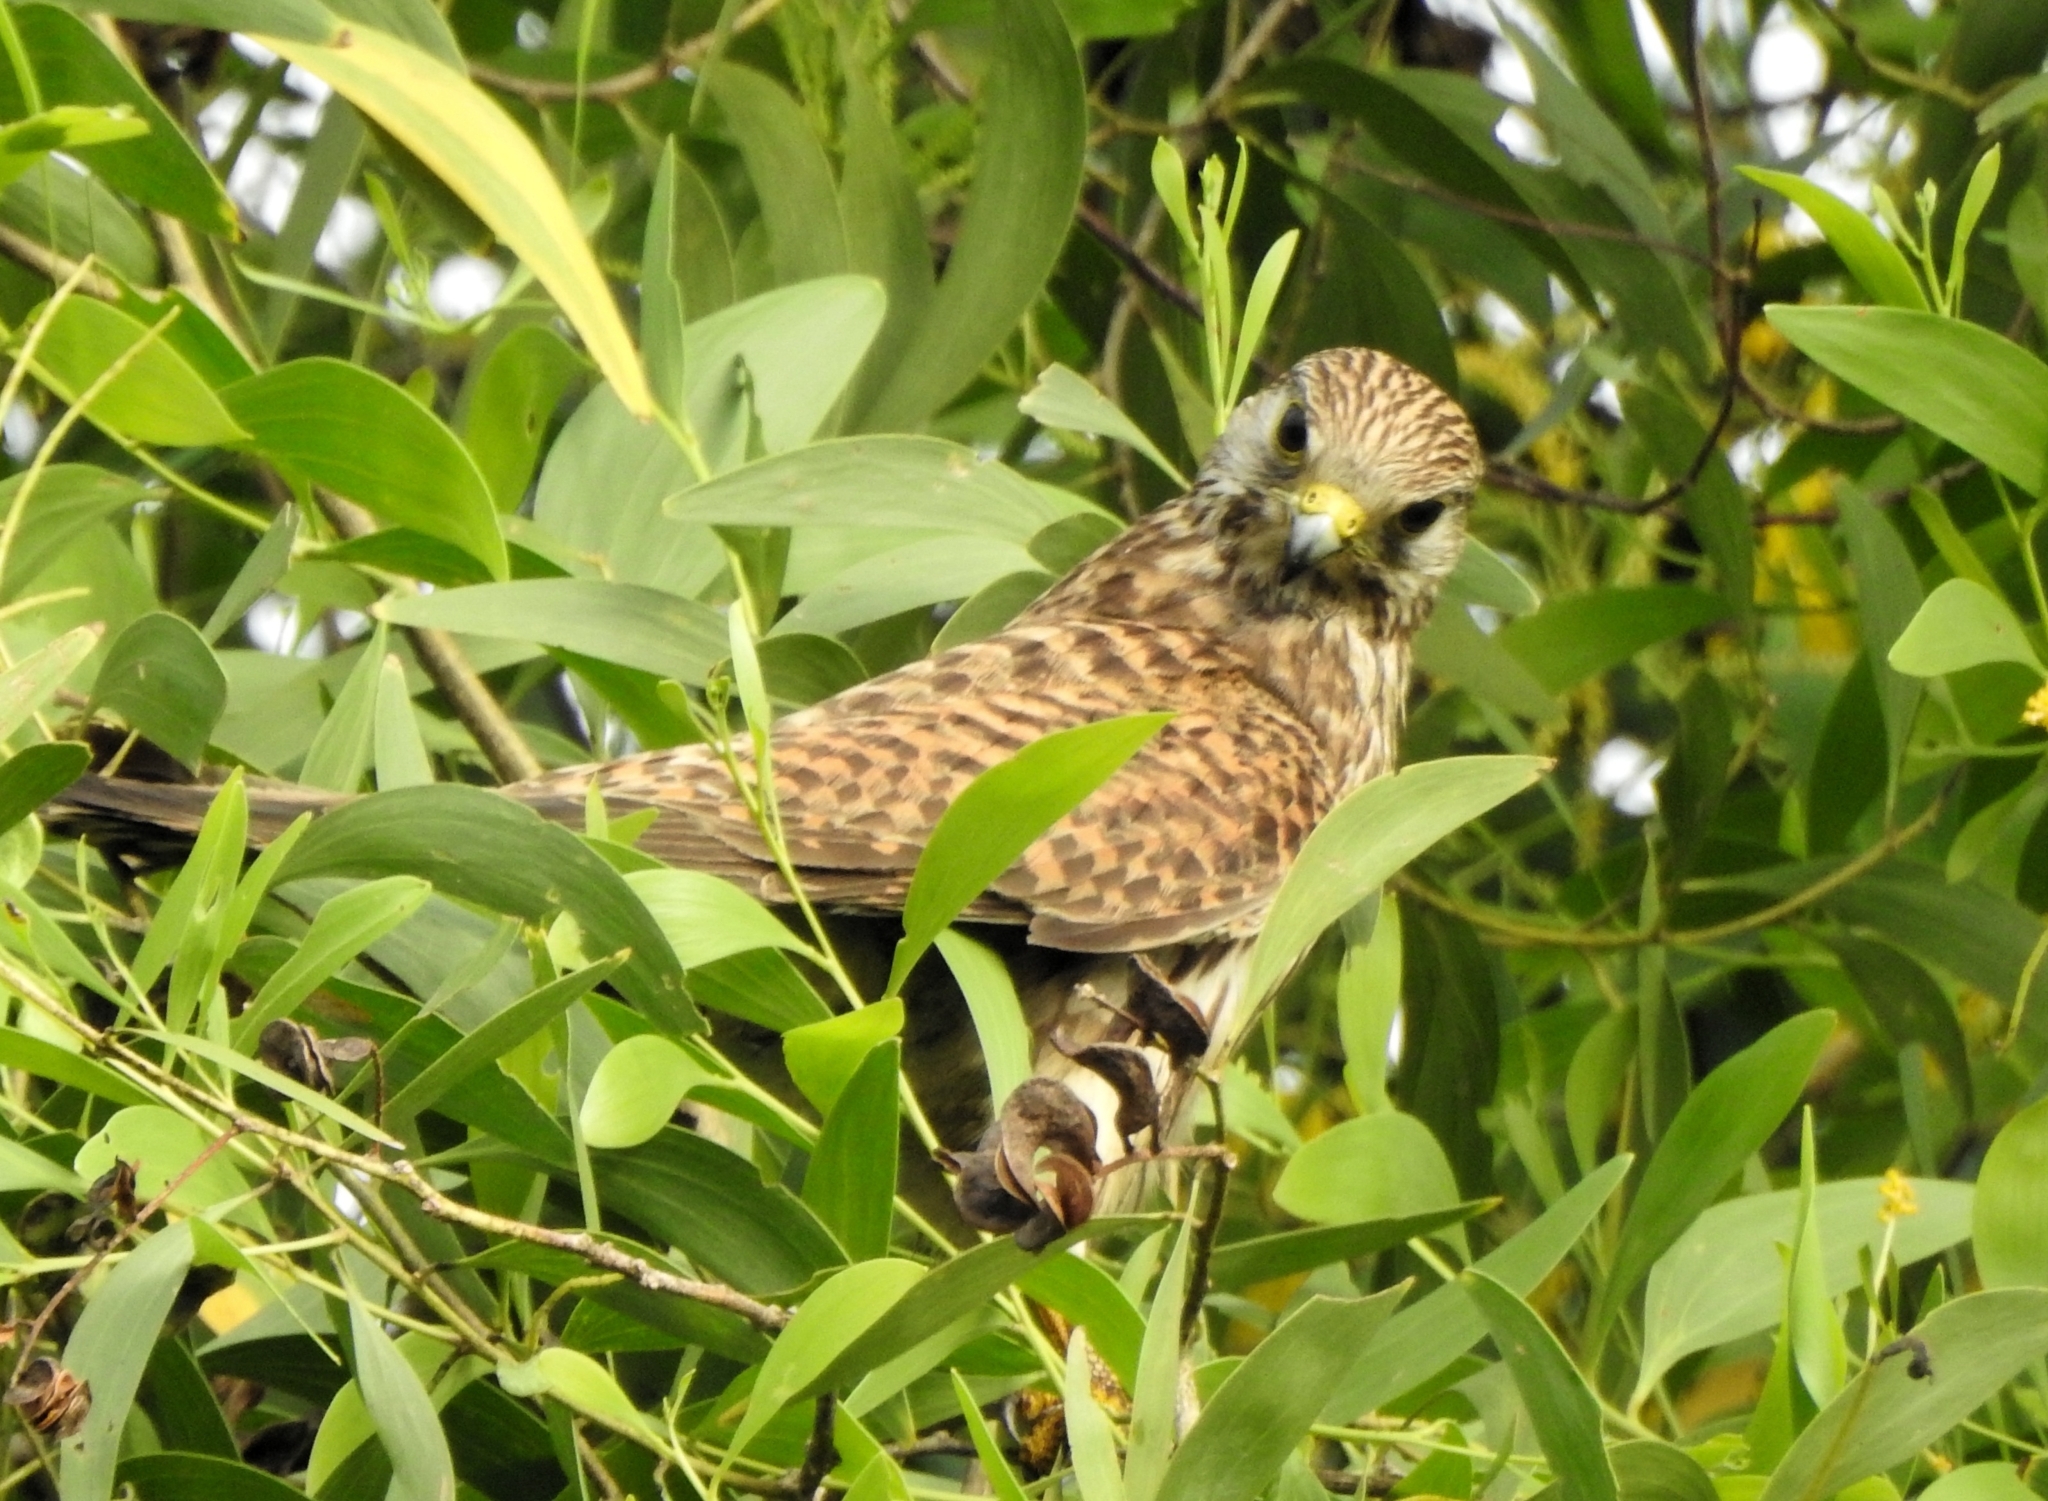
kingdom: Animalia
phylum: Chordata
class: Aves
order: Falconiformes
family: Falconidae
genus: Falco
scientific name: Falco tinnunculus
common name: Common kestrel
